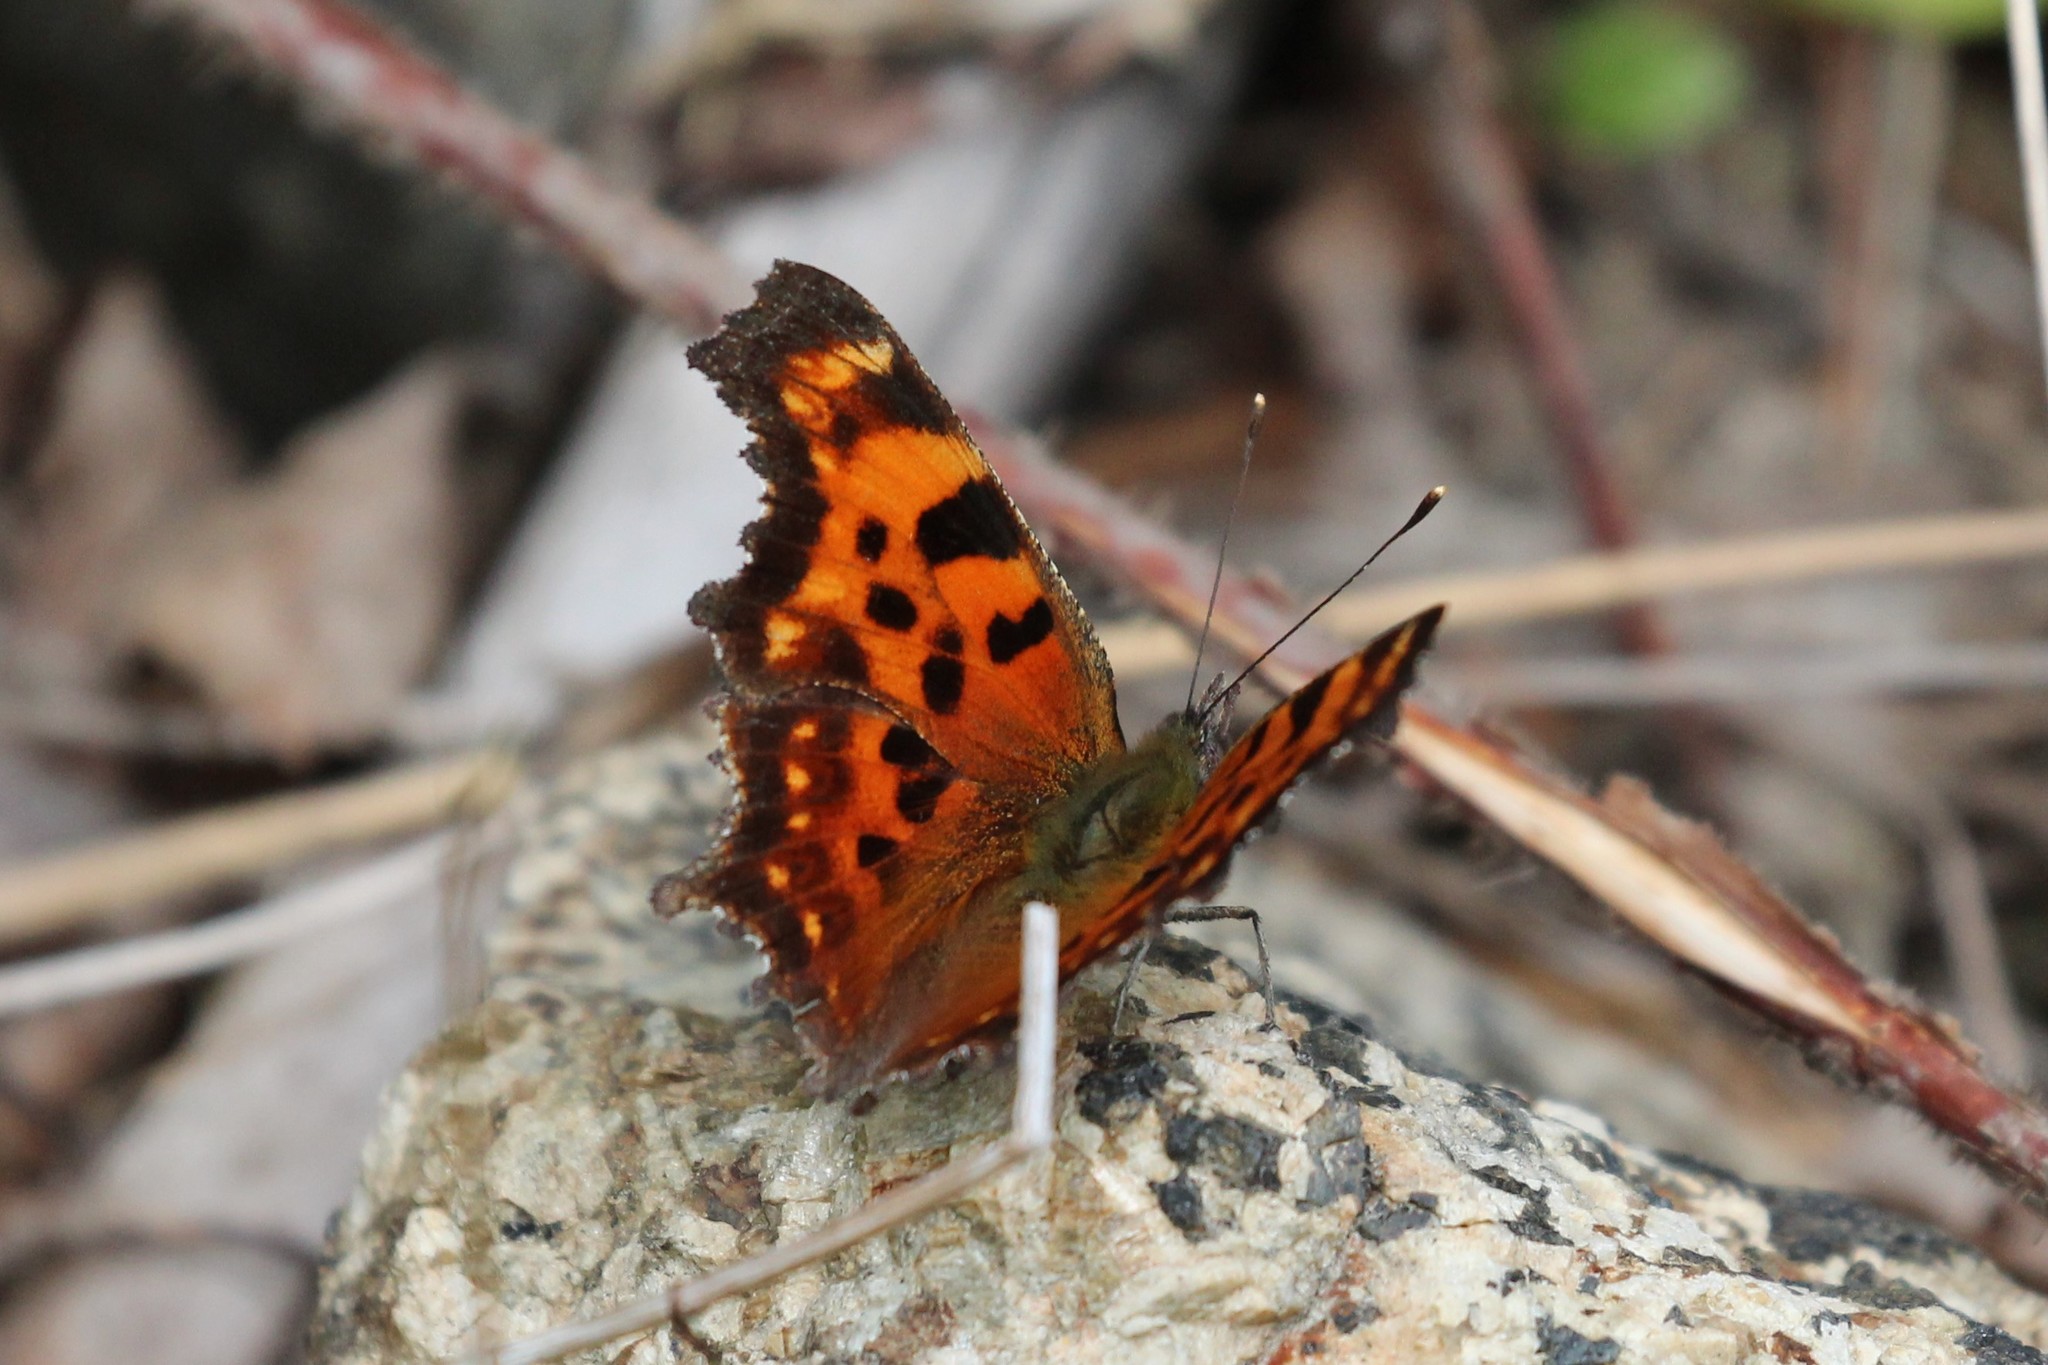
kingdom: Animalia
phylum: Arthropoda
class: Insecta
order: Lepidoptera
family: Nymphalidae
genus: Polygonia
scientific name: Polygonia faunus
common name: Green comma
